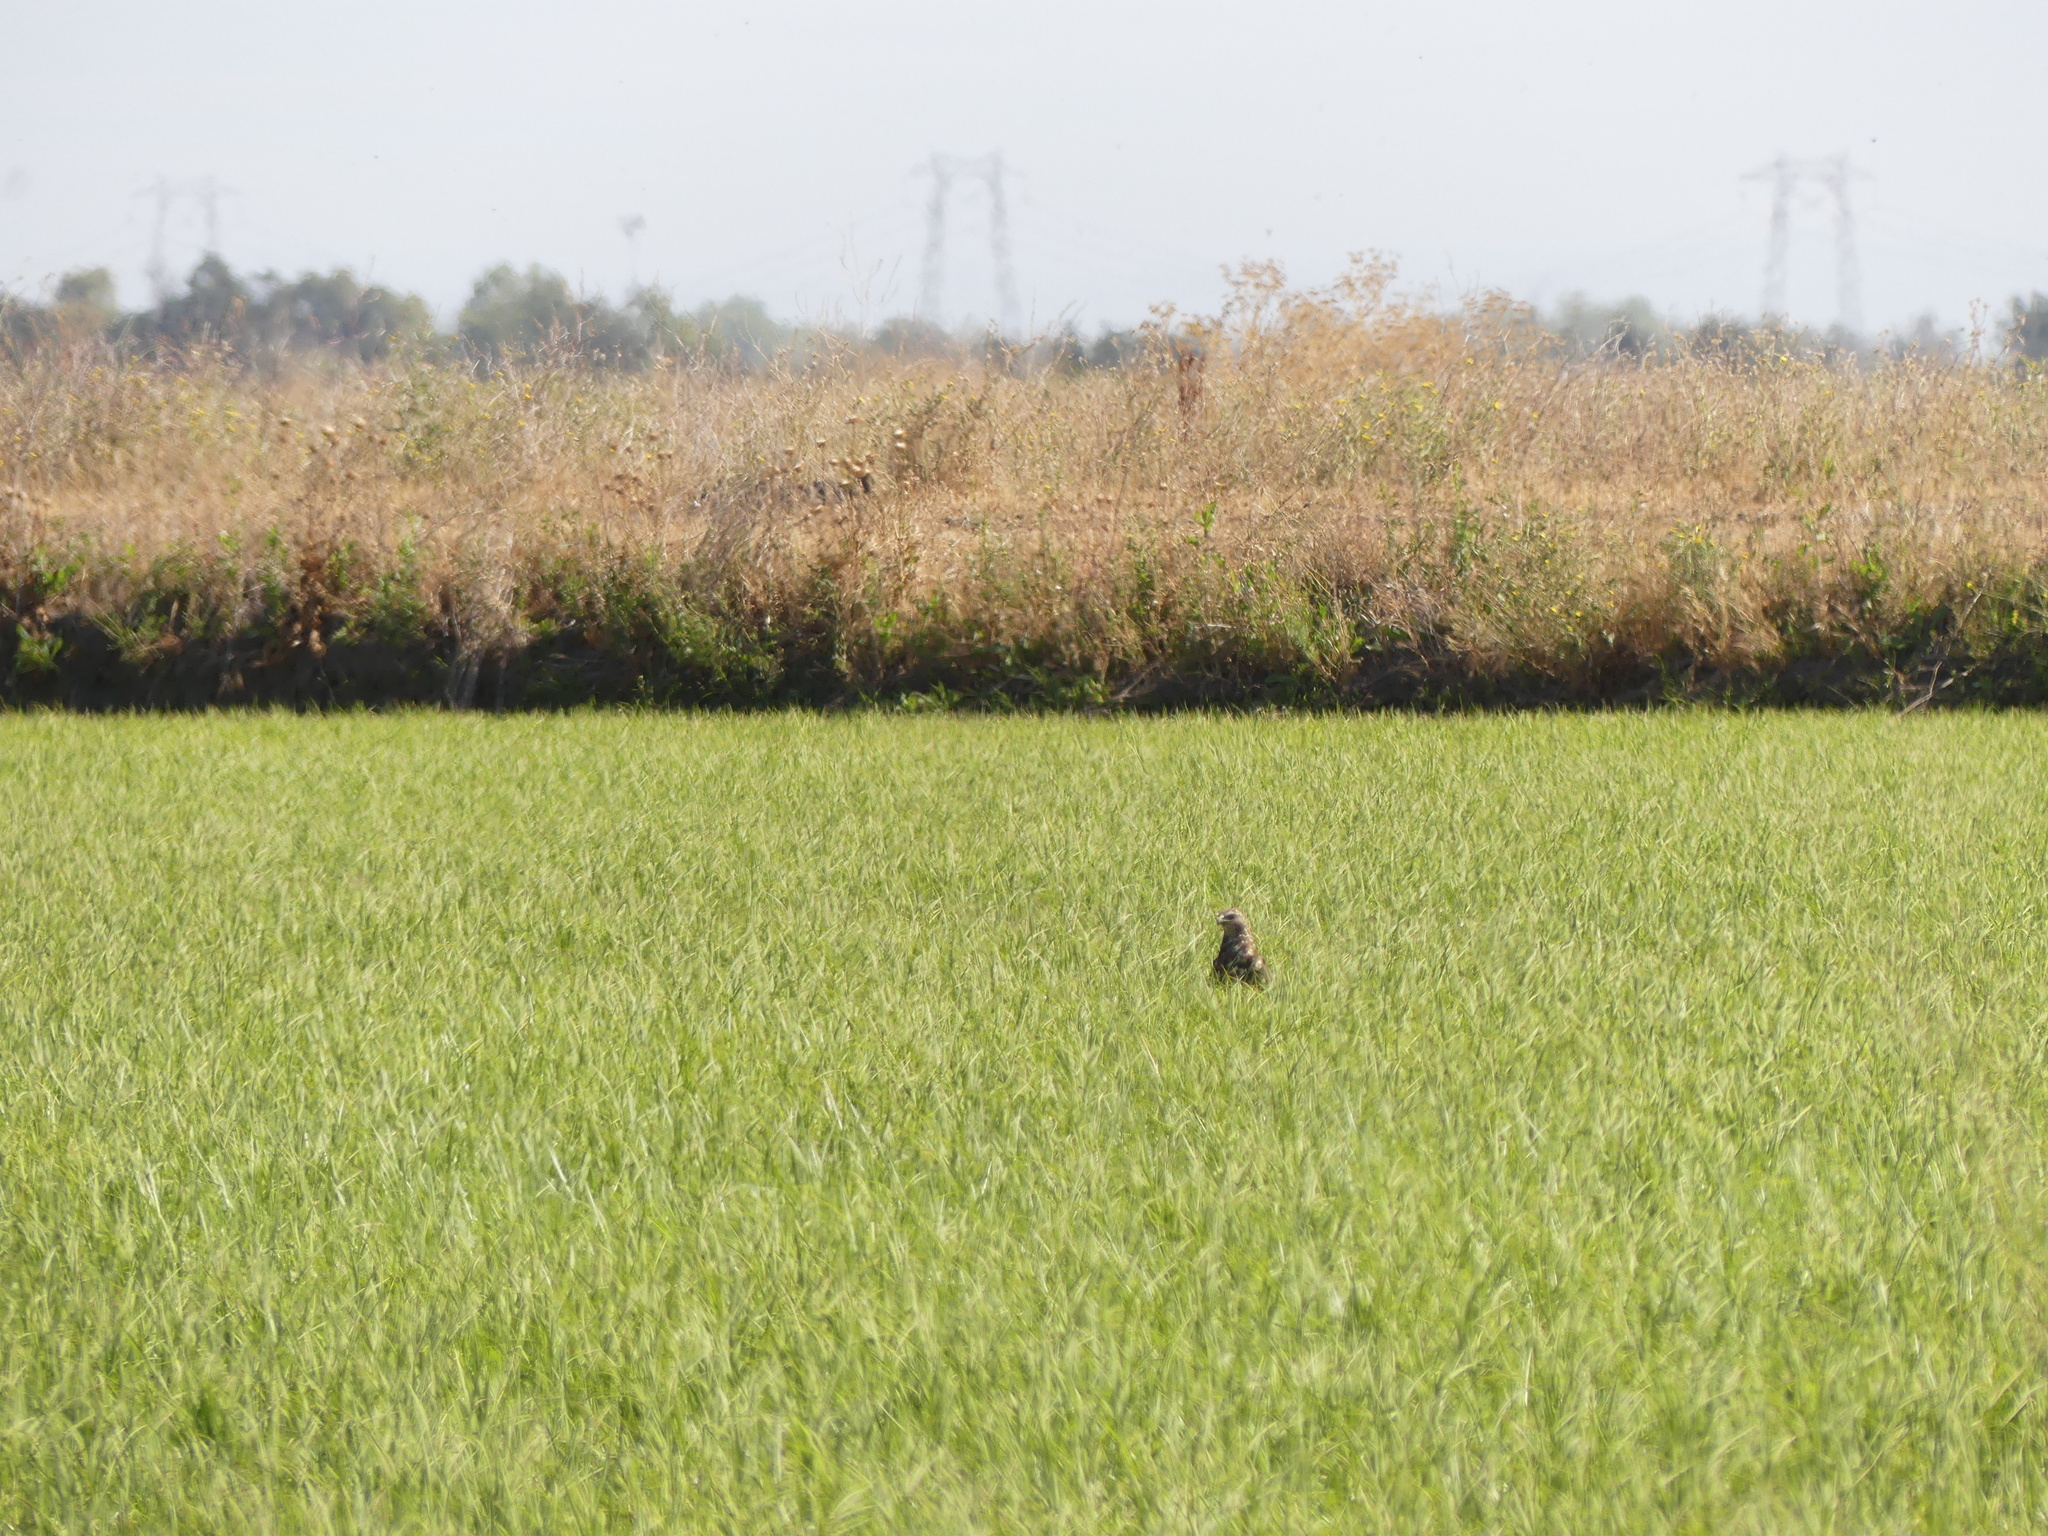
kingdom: Animalia
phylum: Chordata
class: Aves
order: Accipitriformes
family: Accipitridae
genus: Buteo
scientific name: Buteo swainsoni
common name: Swainson's hawk
